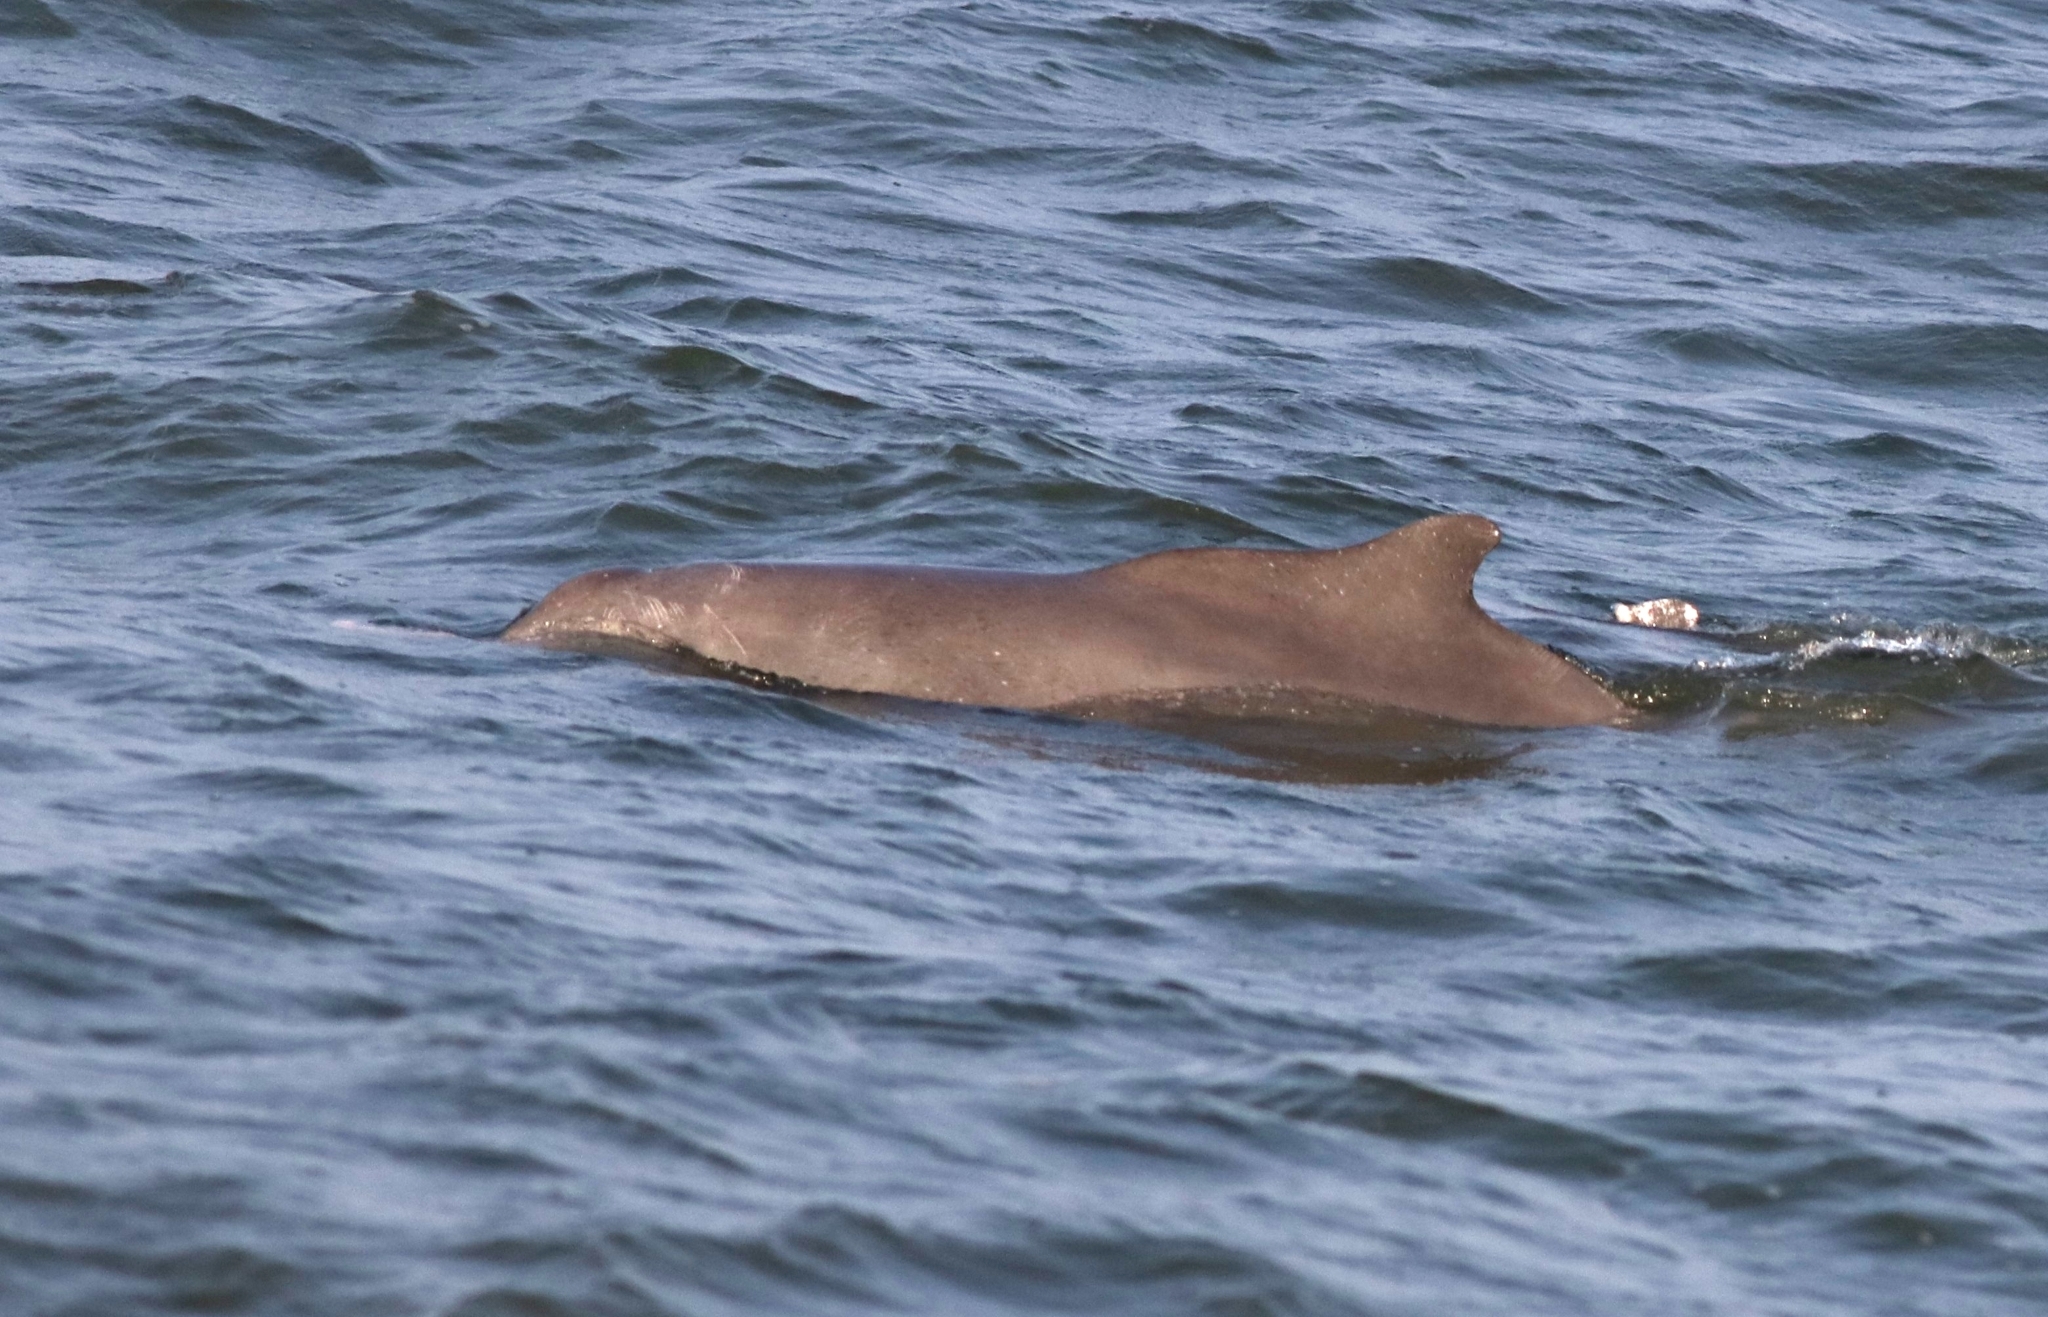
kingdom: Animalia
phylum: Chordata
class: Mammalia
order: Cetacea
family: Delphinidae
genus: Sousa
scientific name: Sousa plumbea
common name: Indian ocean humpback dolphin
